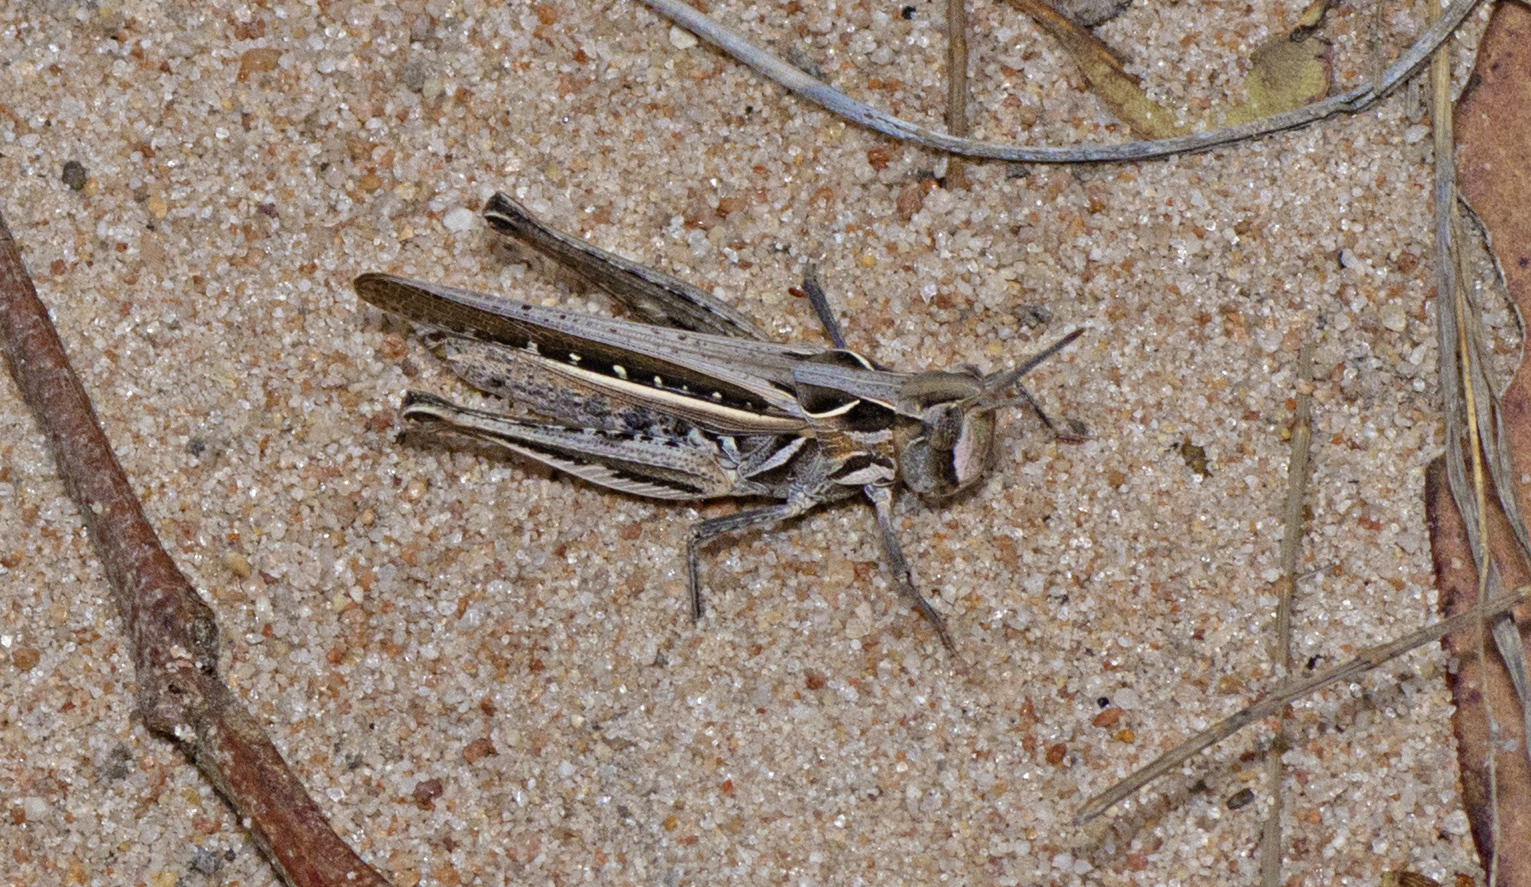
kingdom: Animalia
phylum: Arthropoda
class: Insecta
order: Orthoptera
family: Acrididae
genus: Froggattina
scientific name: Froggattina australis
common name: Froggatt's buzzer
